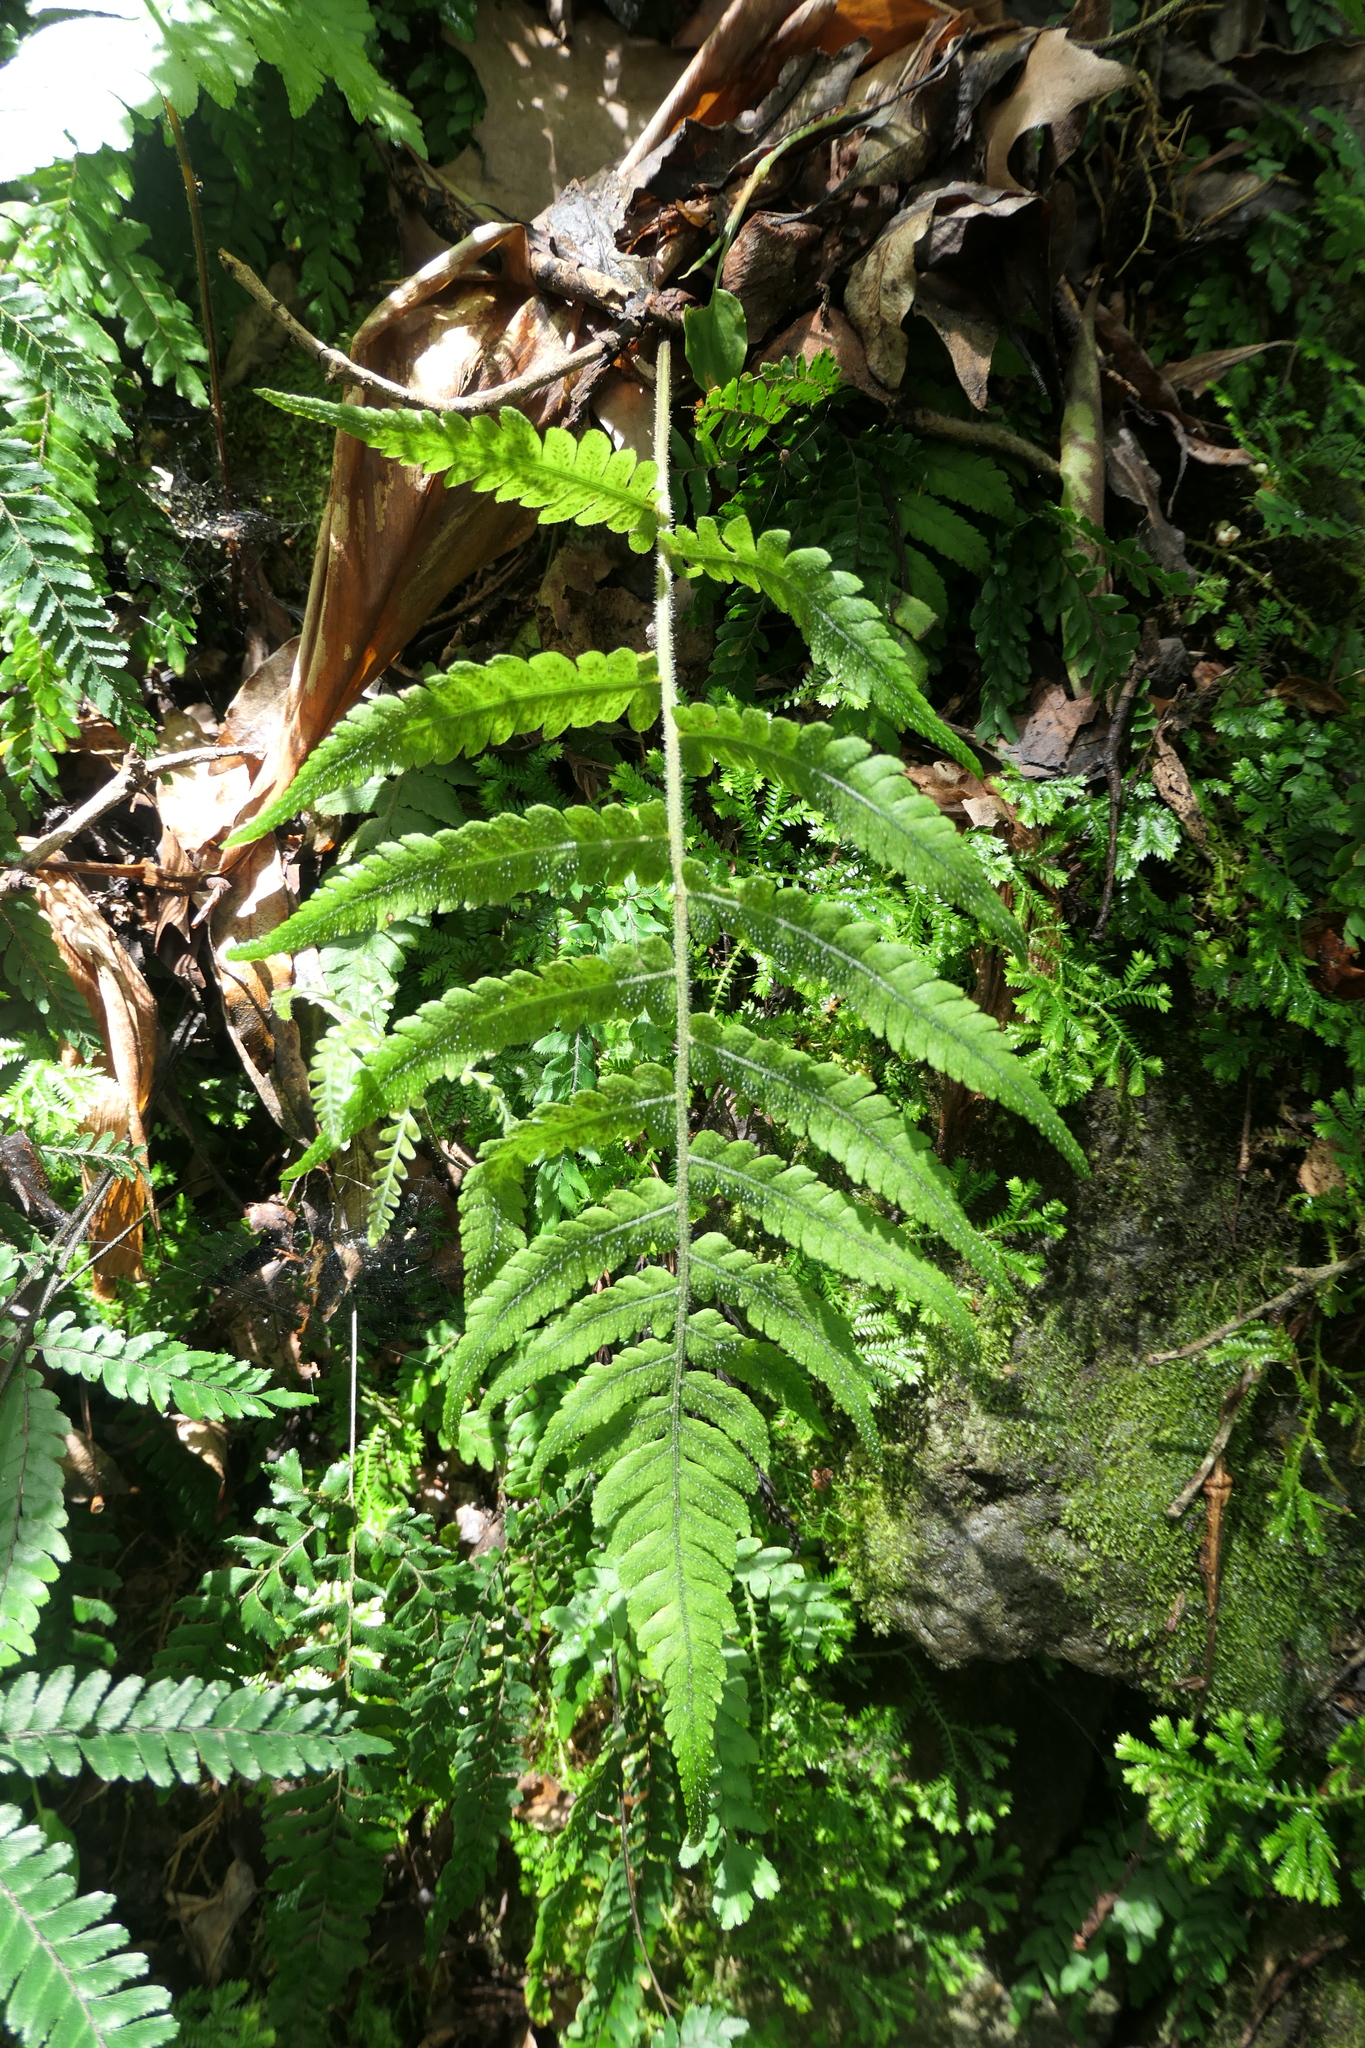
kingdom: Plantae
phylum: Tracheophyta
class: Polypodiopsida
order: Polypodiales
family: Athyriaceae
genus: Deparia
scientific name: Deparia petersenii
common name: Japanese false spleenwort
